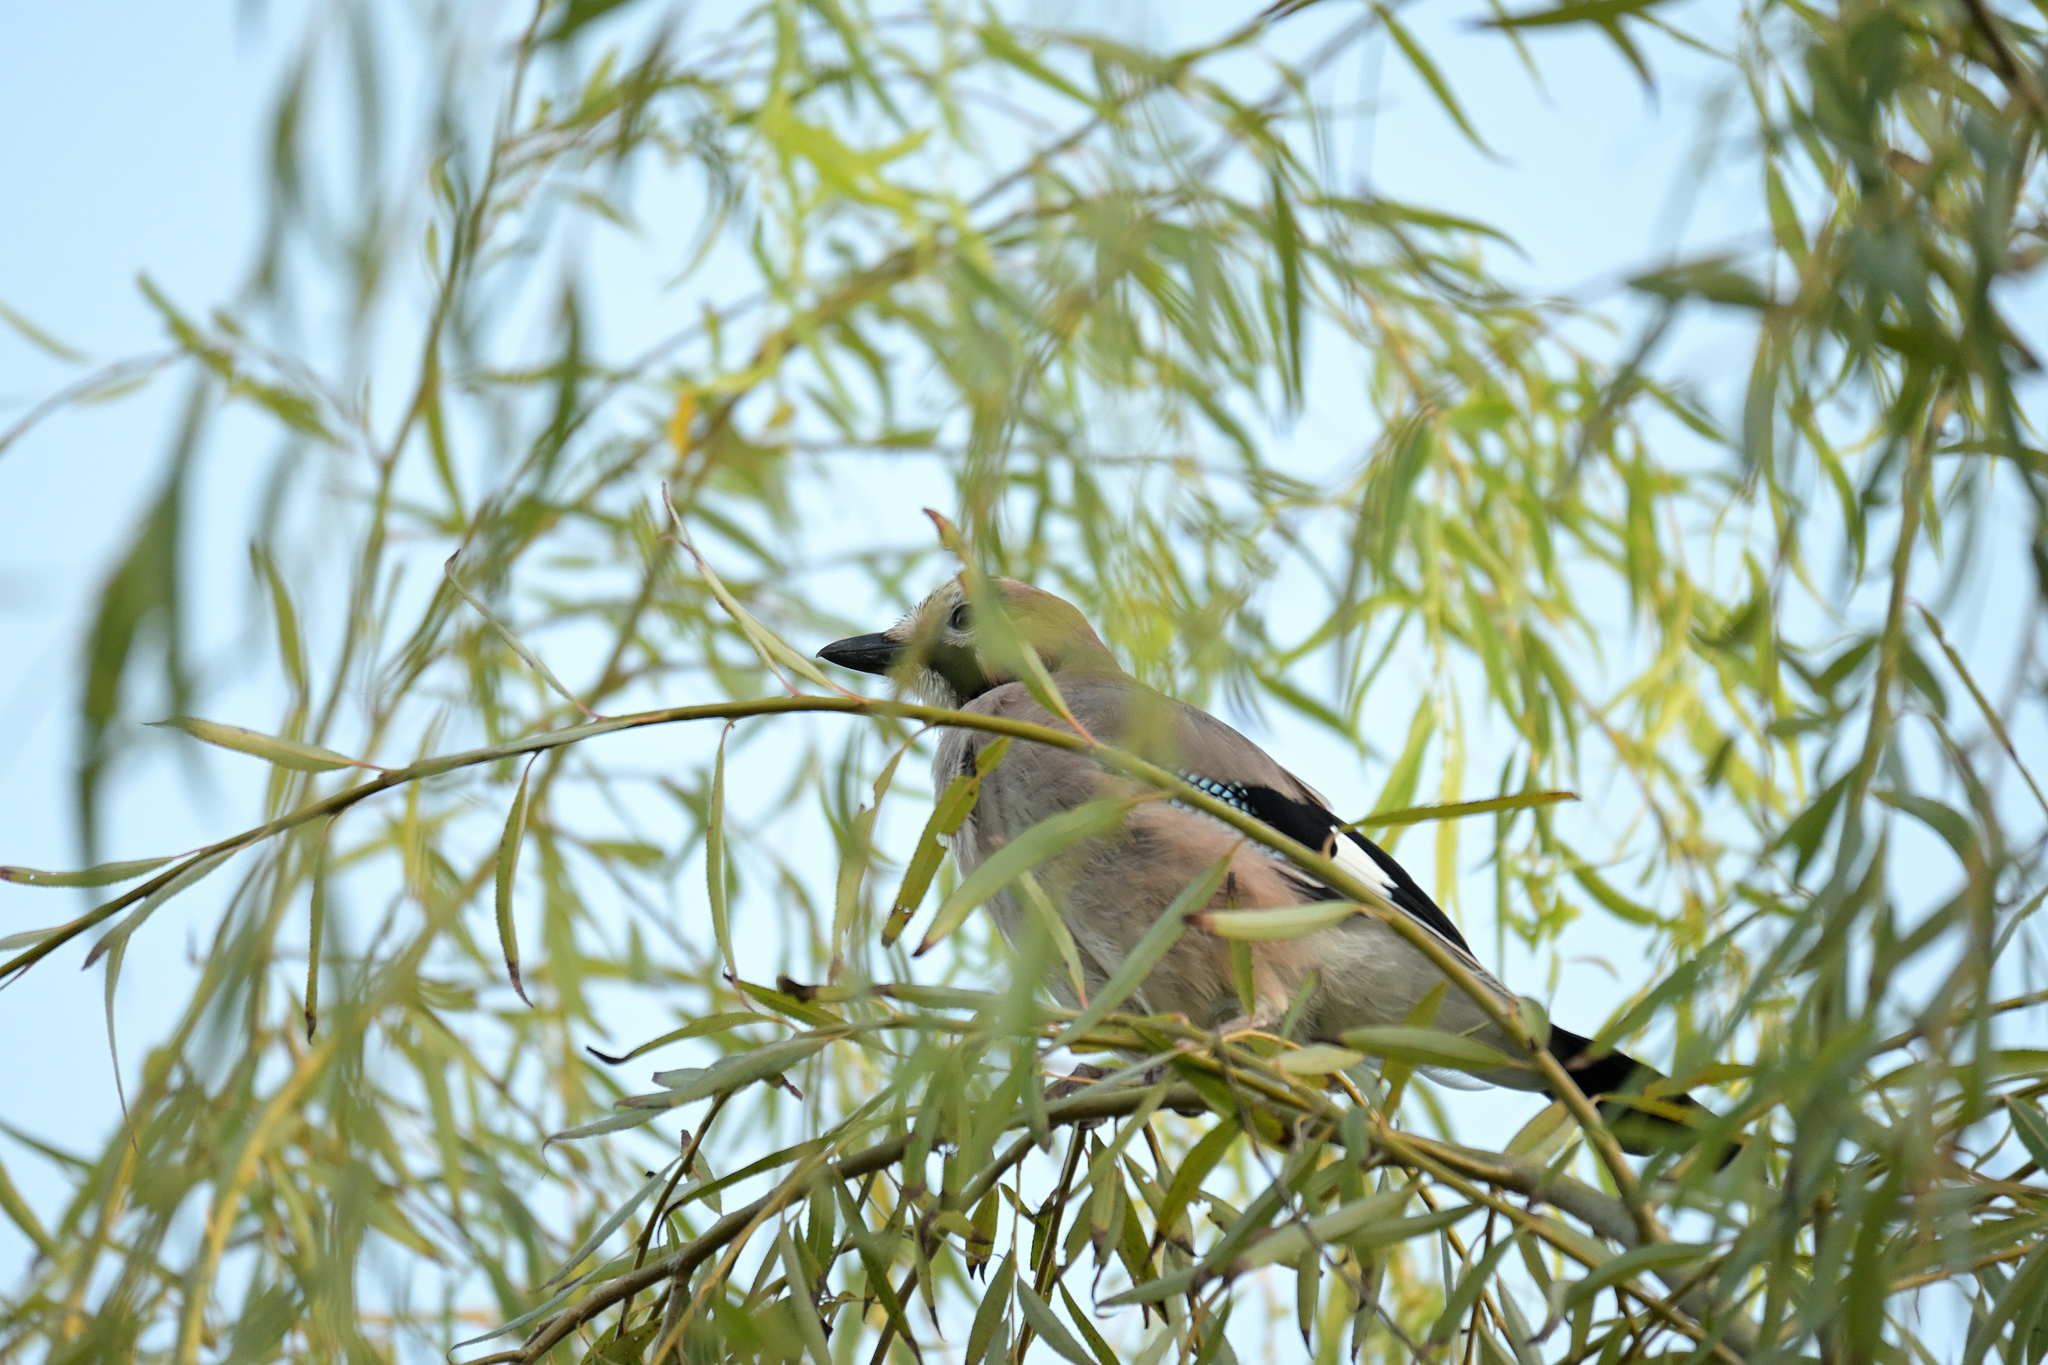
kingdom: Animalia
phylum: Chordata
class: Aves
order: Passeriformes
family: Corvidae
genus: Garrulus
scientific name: Garrulus glandarius
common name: Eurasian jay
